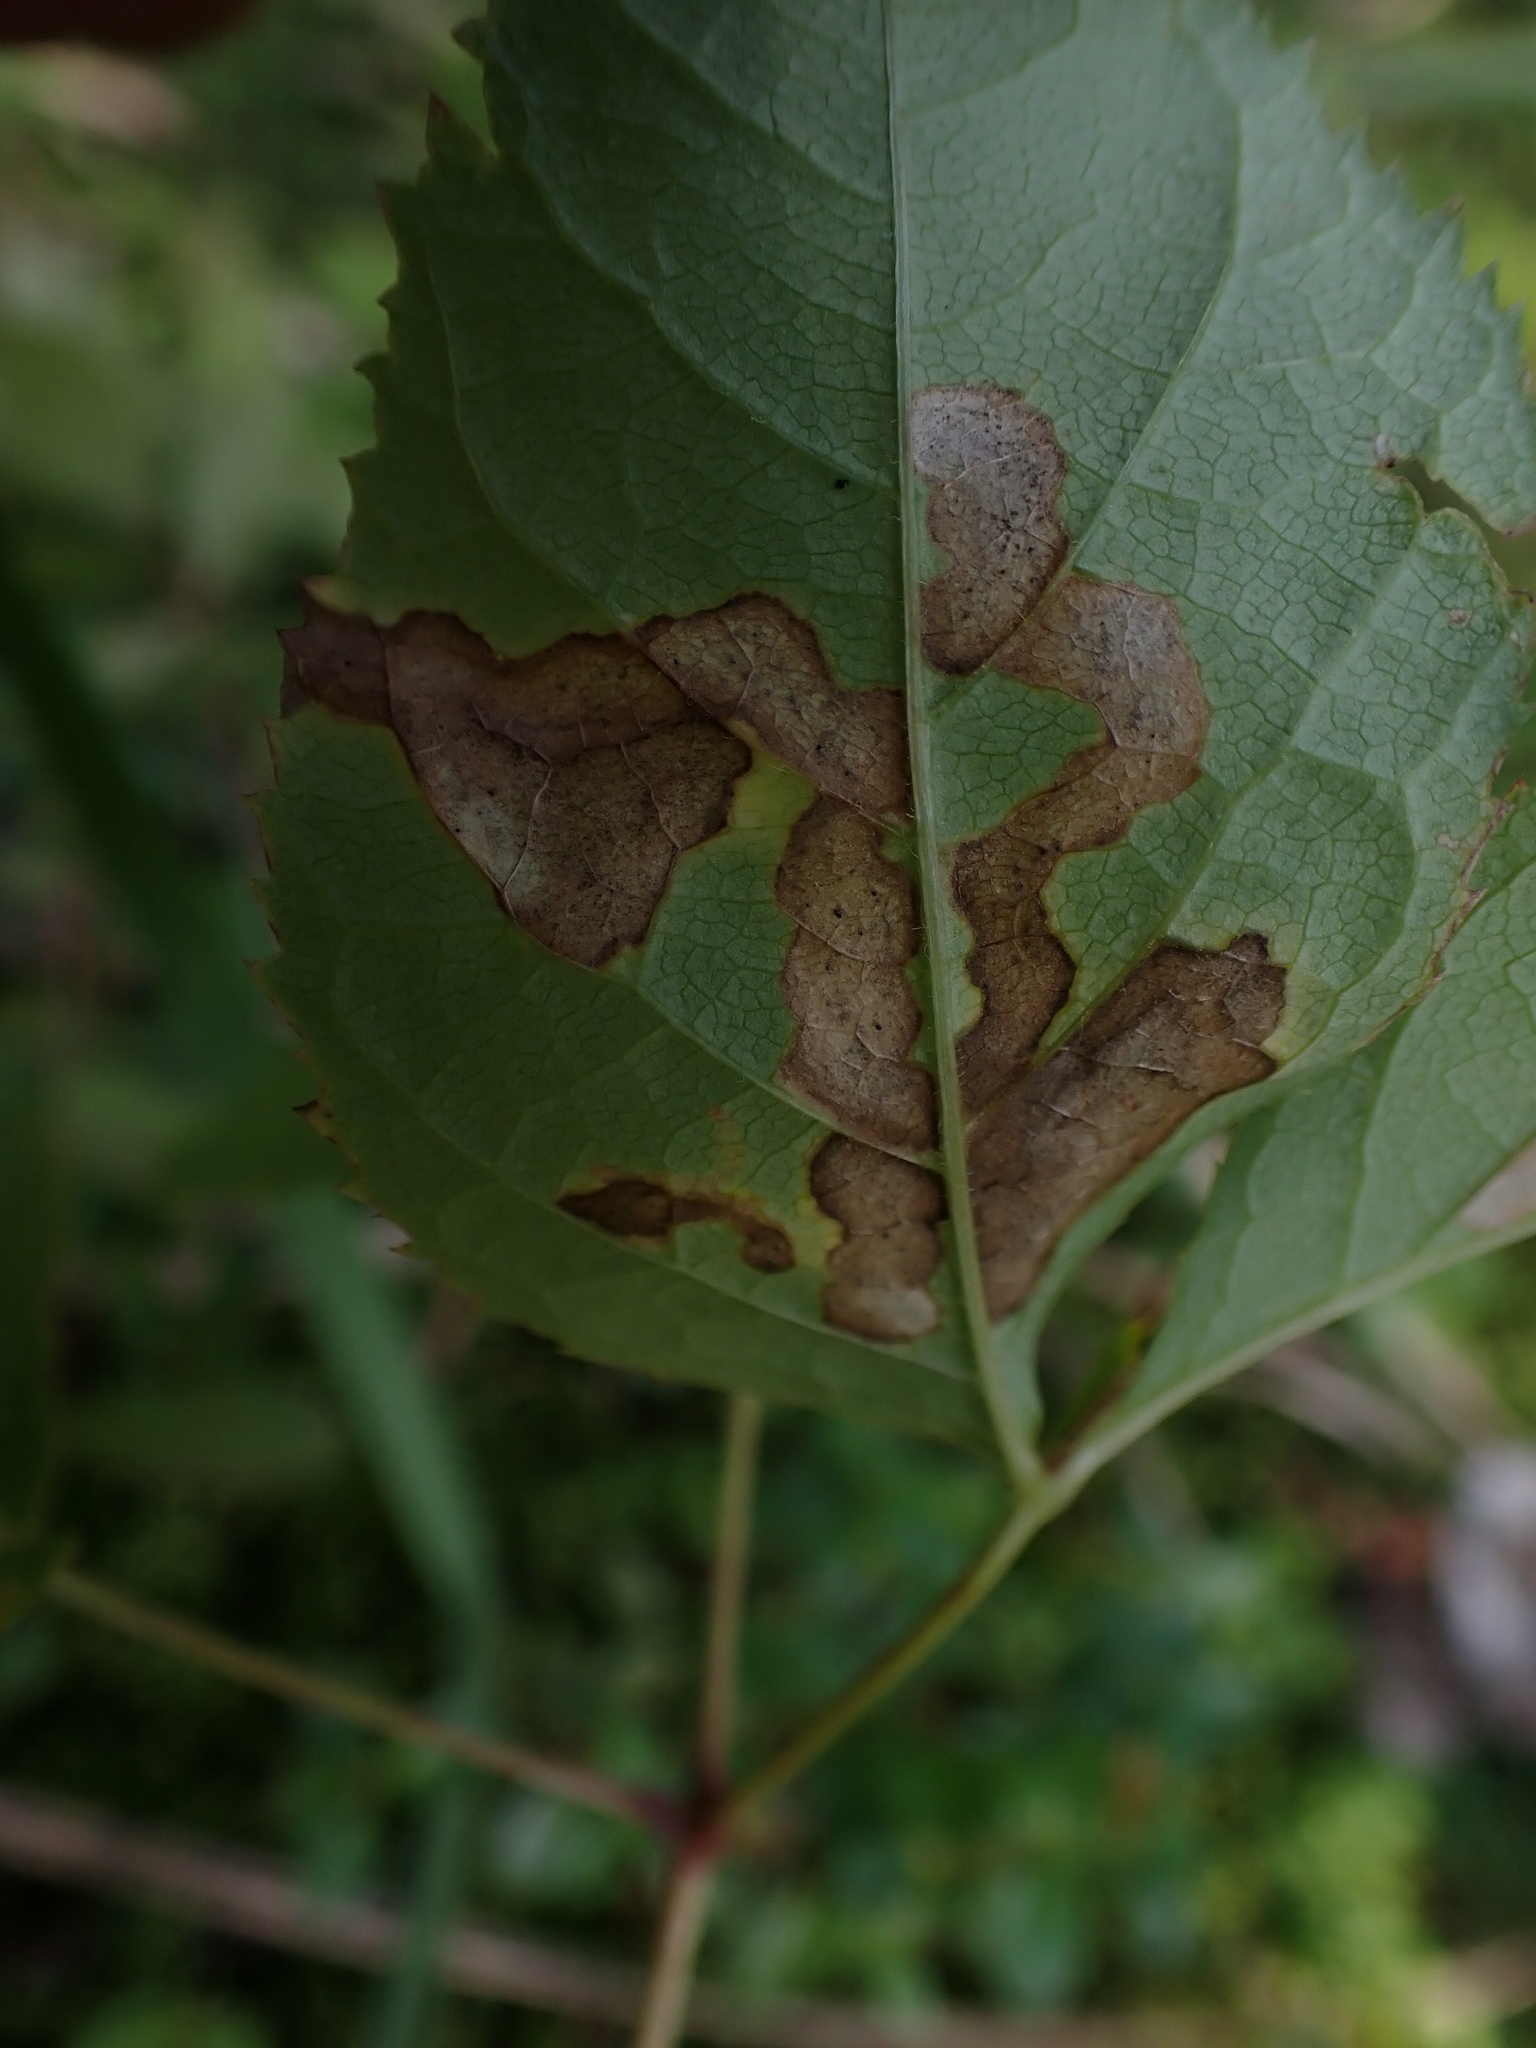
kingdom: Animalia
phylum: Arthropoda
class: Insecta
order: Diptera
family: Agromyzidae
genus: Phytomyza
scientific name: Phytomyza aralivora
